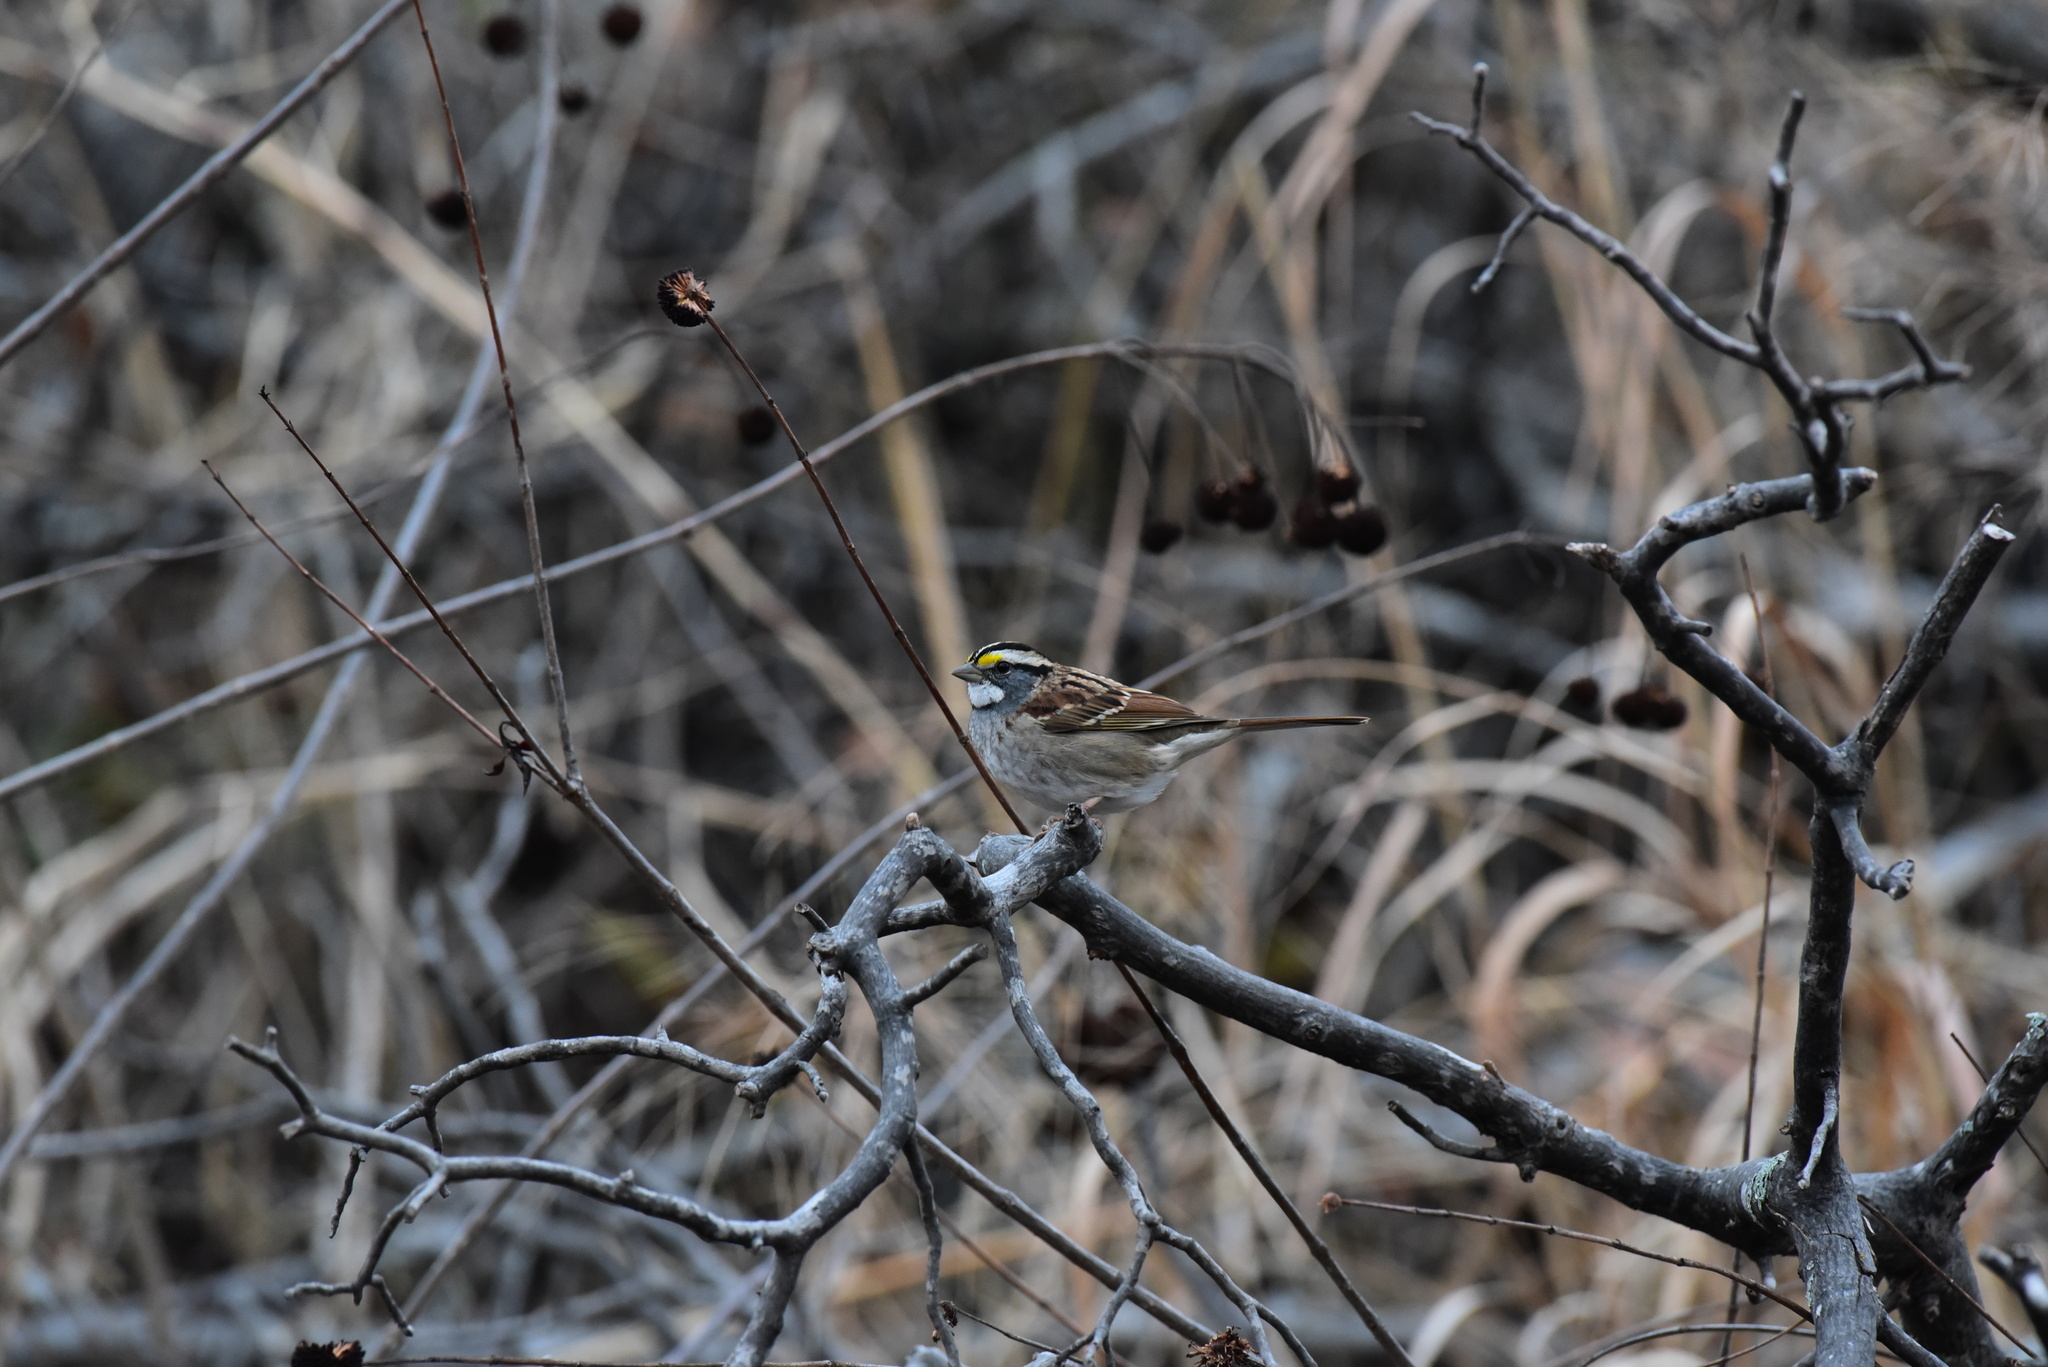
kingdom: Animalia
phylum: Chordata
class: Aves
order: Passeriformes
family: Passerellidae
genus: Zonotrichia
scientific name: Zonotrichia albicollis
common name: White-throated sparrow
